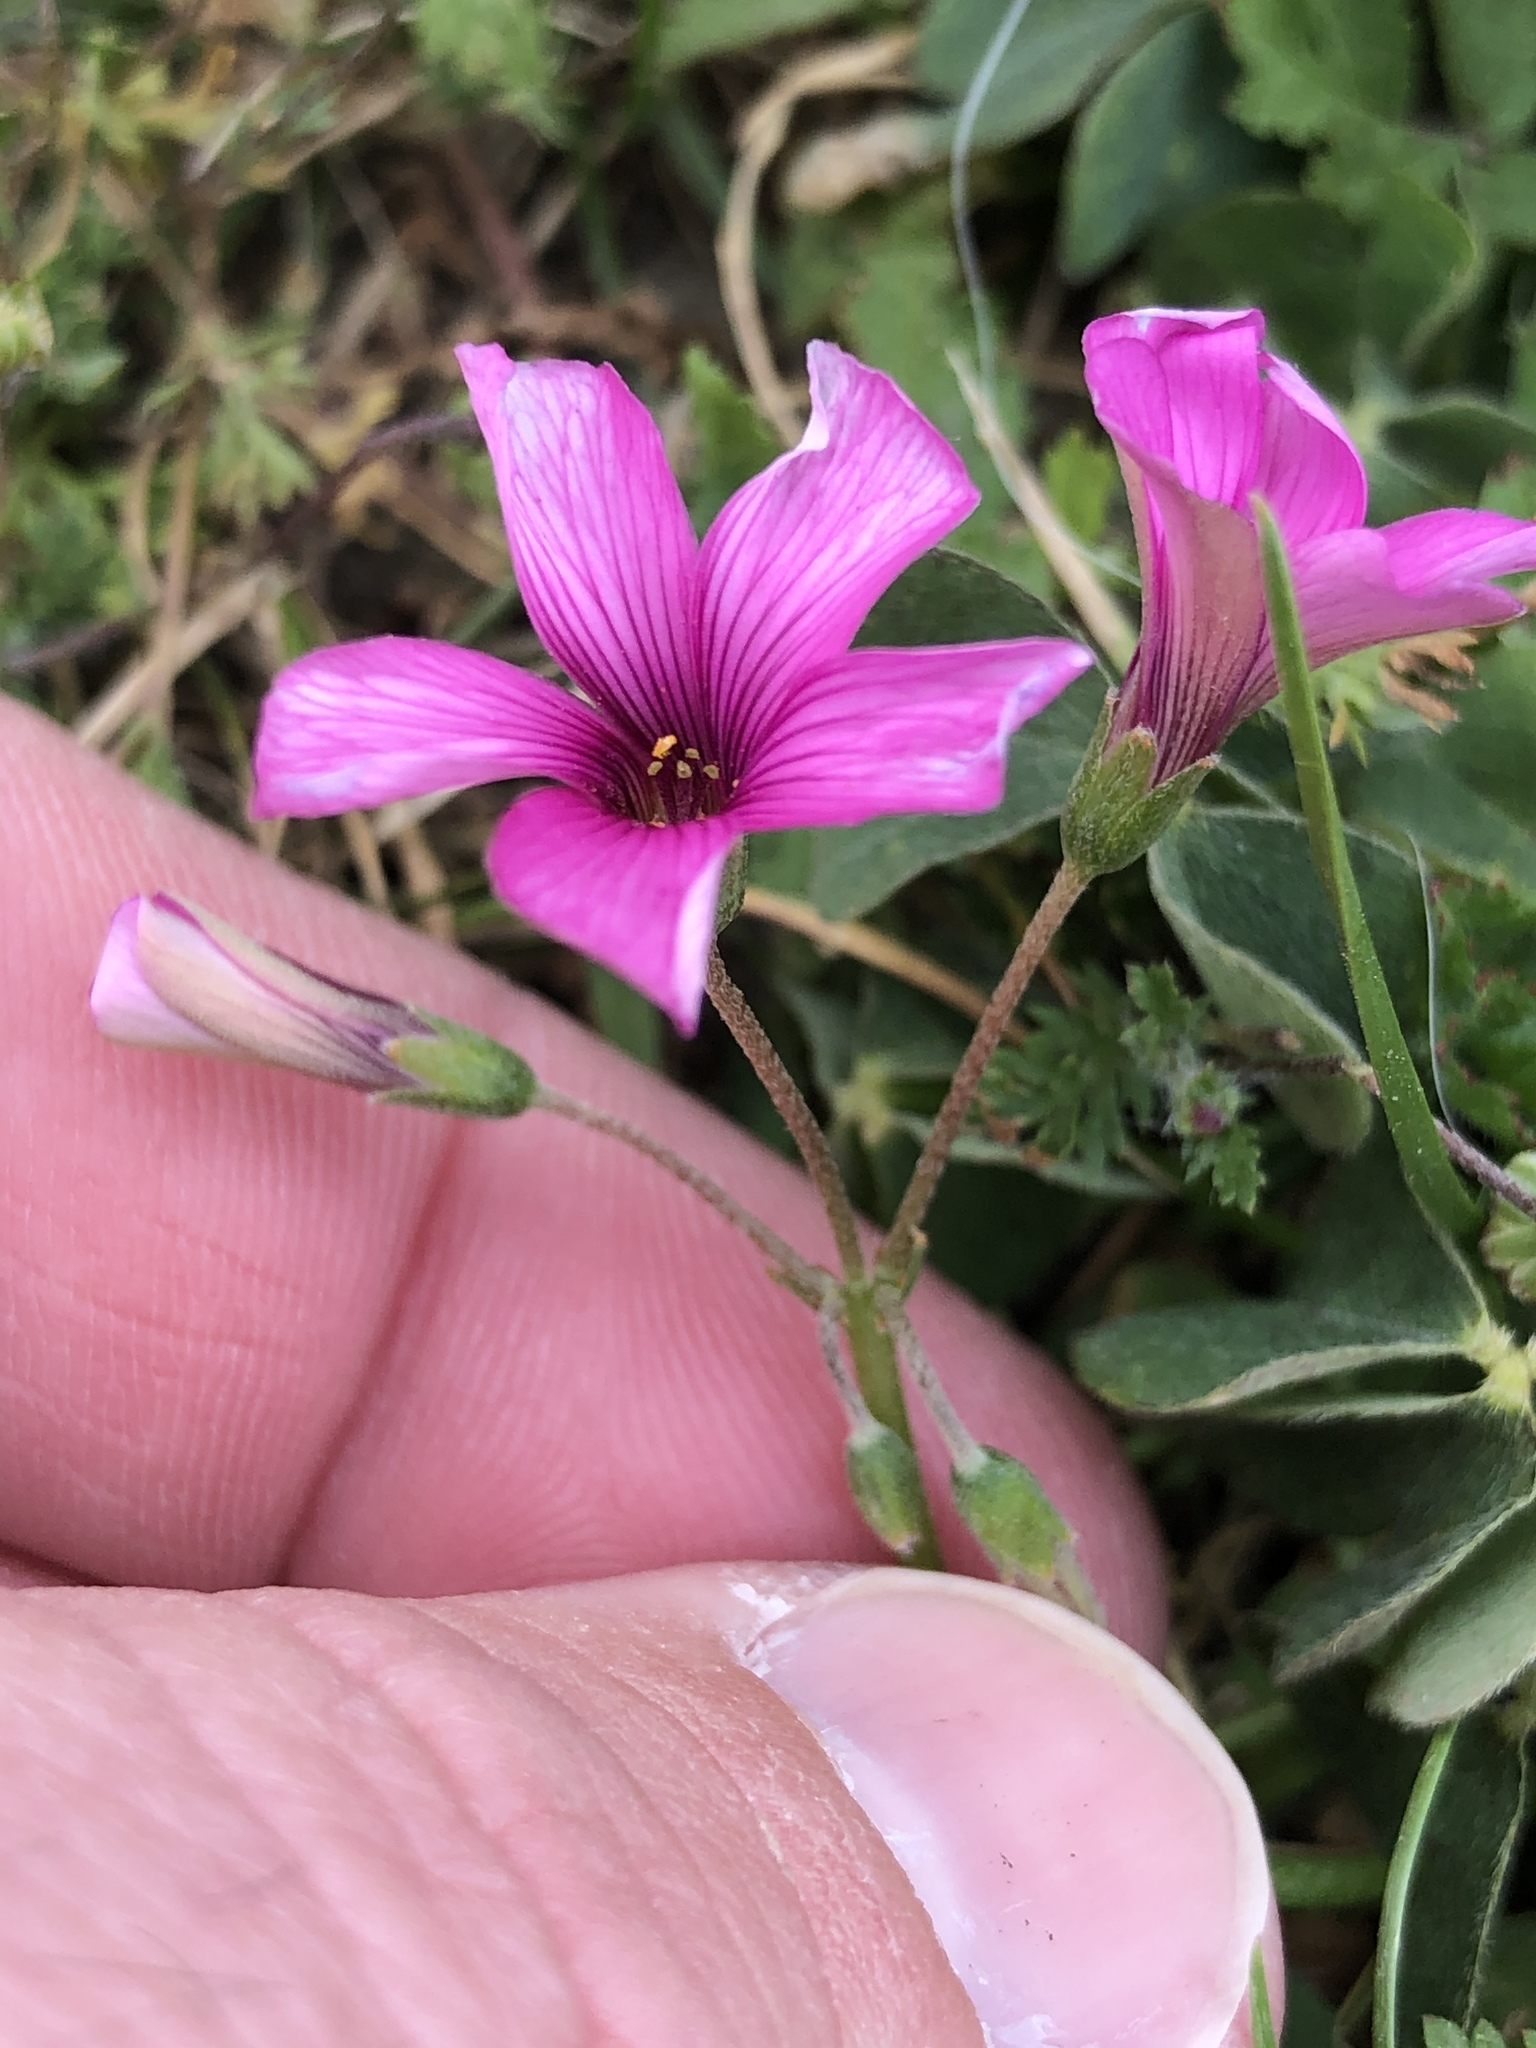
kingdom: Plantae
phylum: Tracheophyta
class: Magnoliopsida
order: Oxalidales
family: Oxalidaceae
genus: Oxalis
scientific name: Oxalis articulata
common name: Pink-sorrel
